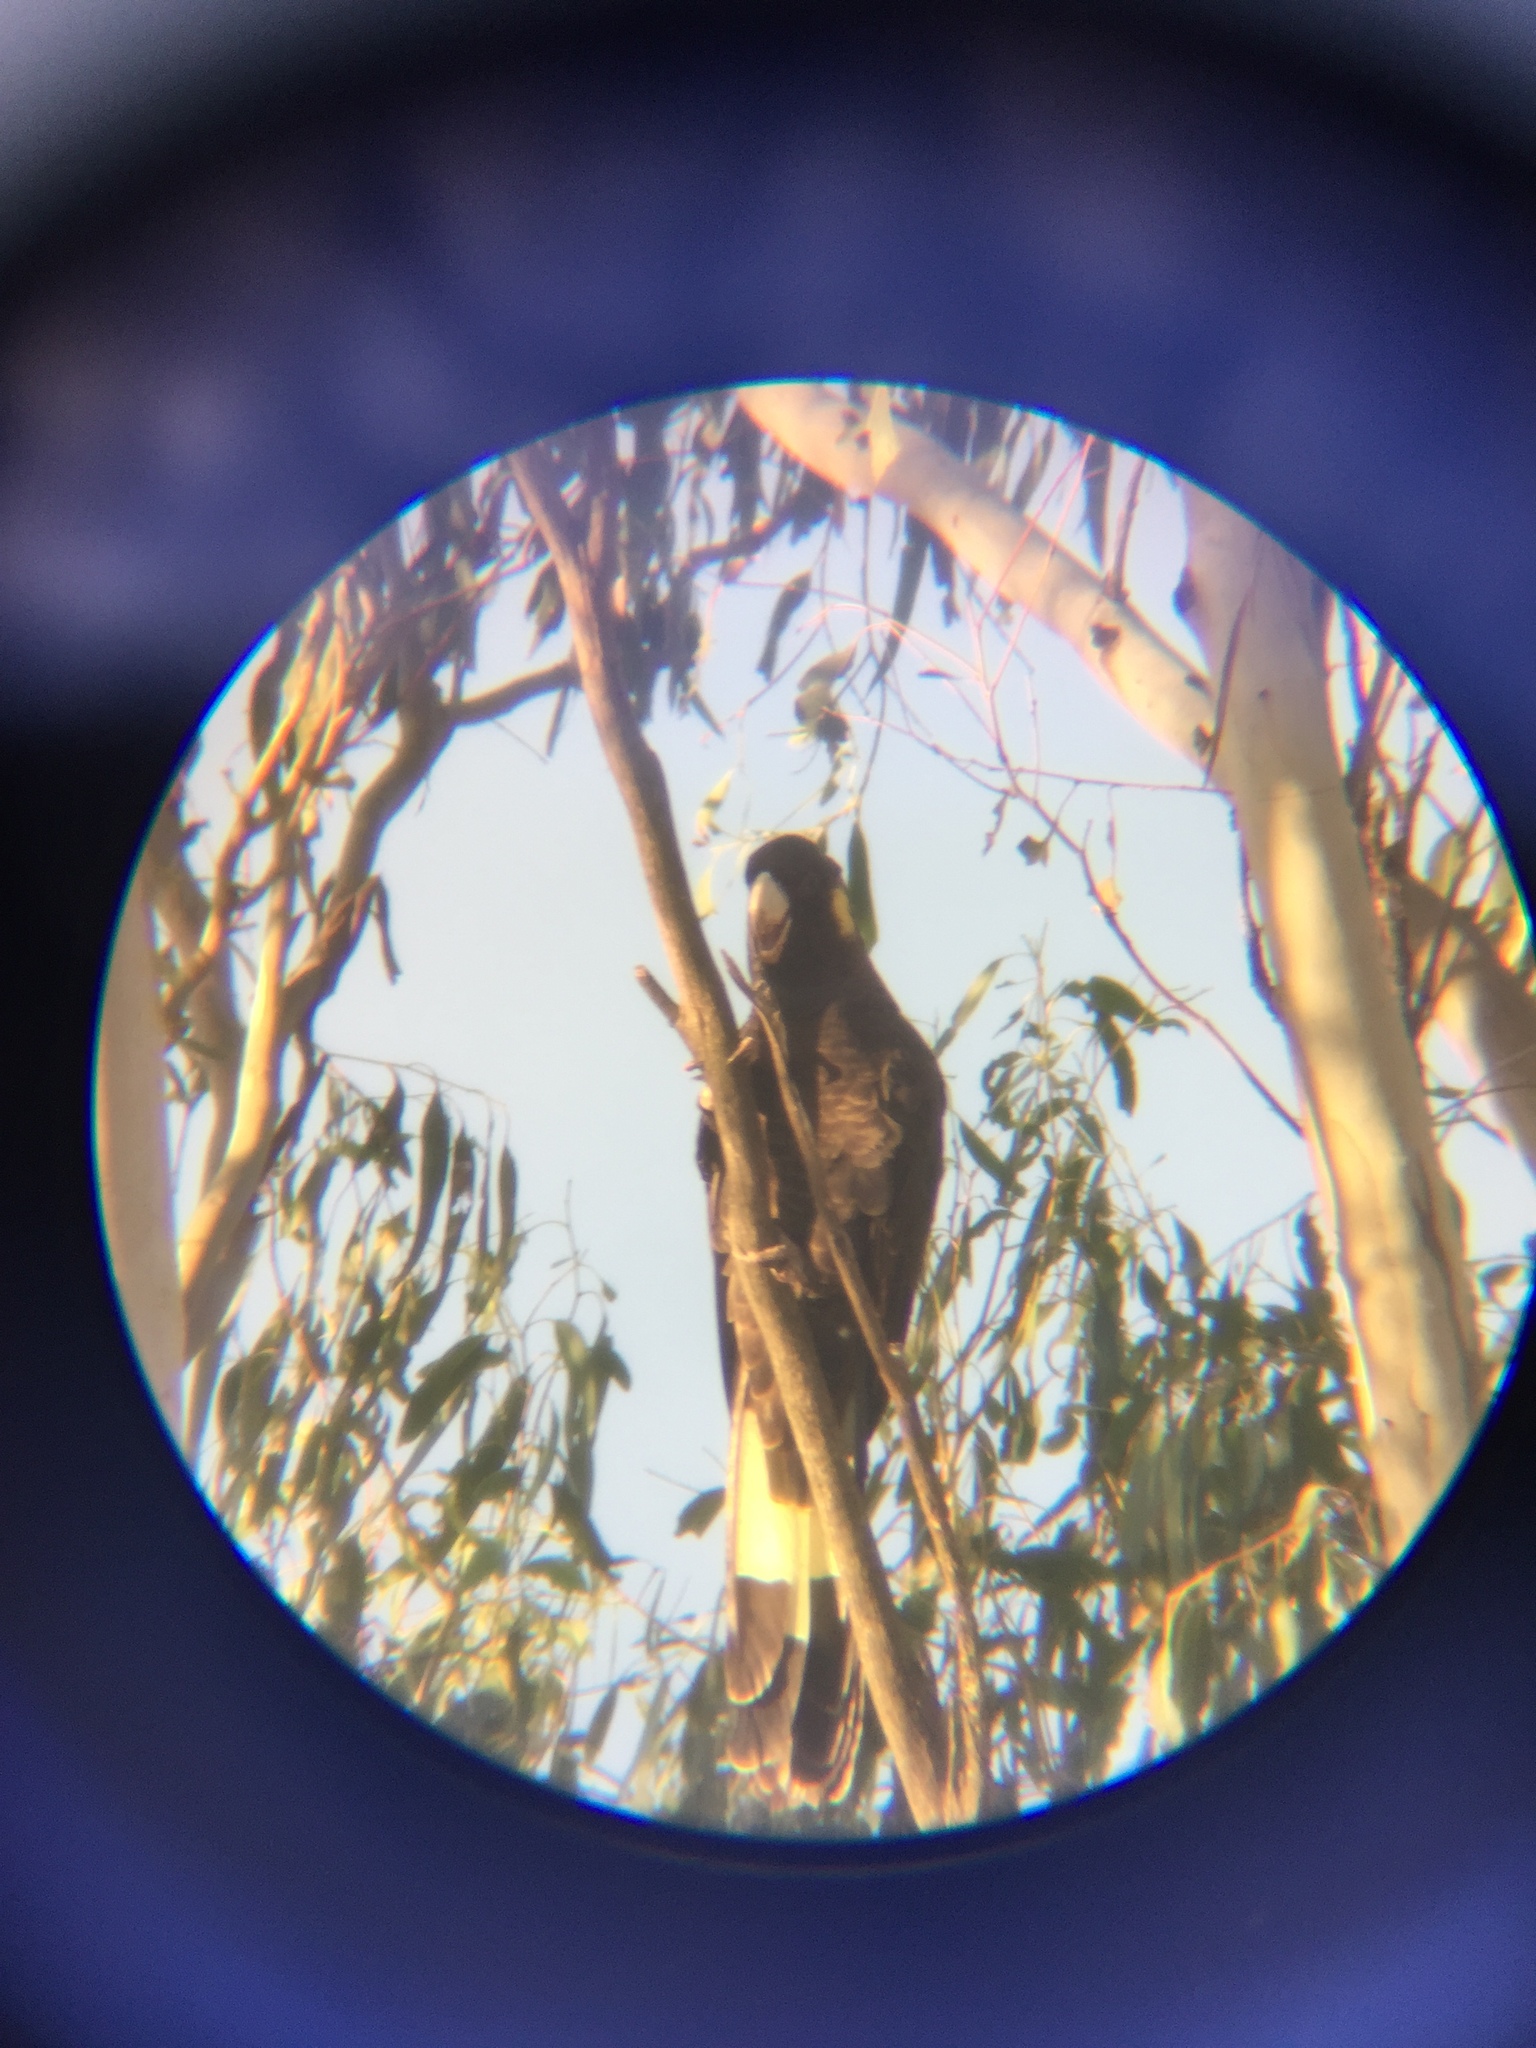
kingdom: Animalia
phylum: Chordata
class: Aves
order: Psittaciformes
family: Cacatuidae
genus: Zanda
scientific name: Zanda funerea
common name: Yellow-tailed black-cockatoo
